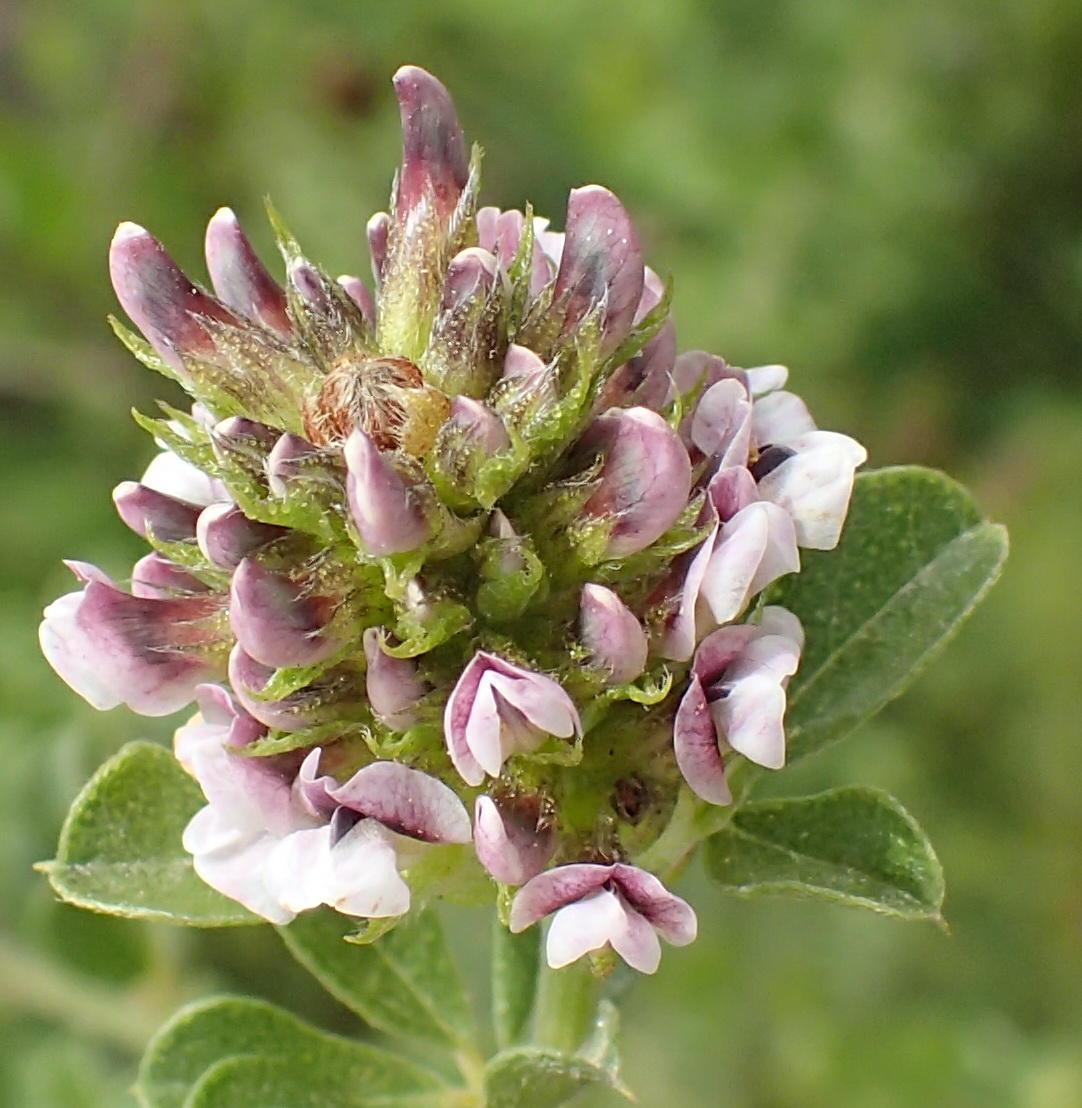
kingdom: Plantae
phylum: Tracheophyta
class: Magnoliopsida
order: Fabales
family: Fabaceae
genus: Psoralea
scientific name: Psoralea stachyera
